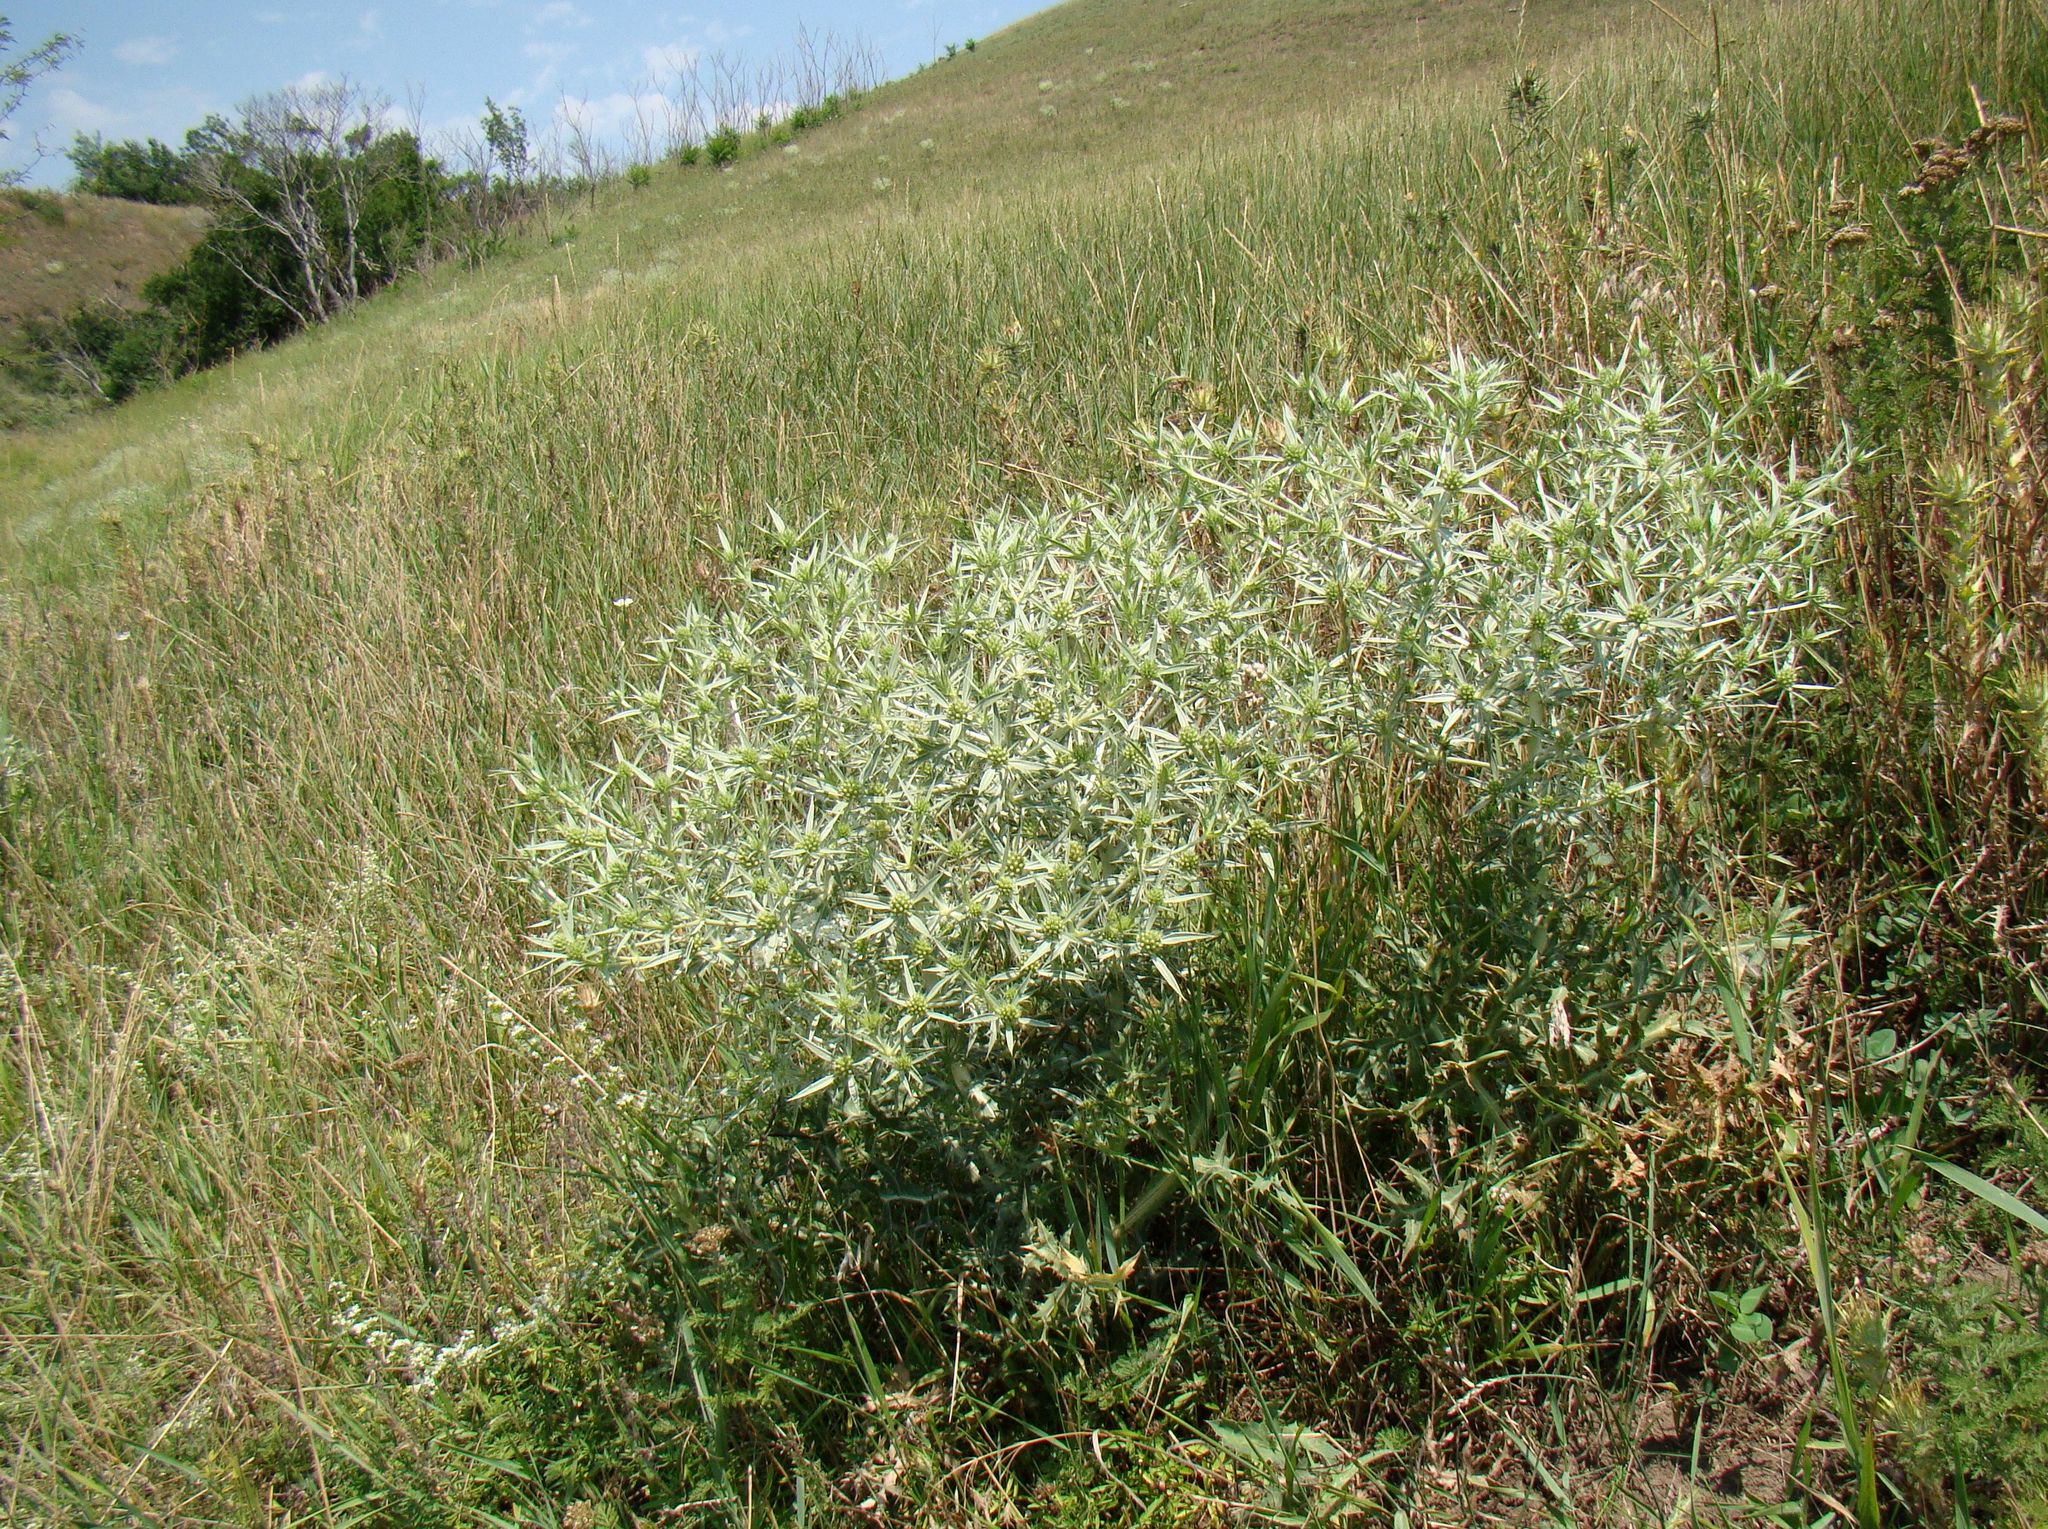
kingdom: Plantae
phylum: Tracheophyta
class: Magnoliopsida
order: Apiales
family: Apiaceae
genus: Eryngium
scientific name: Eryngium campestre
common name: Field eryngo
